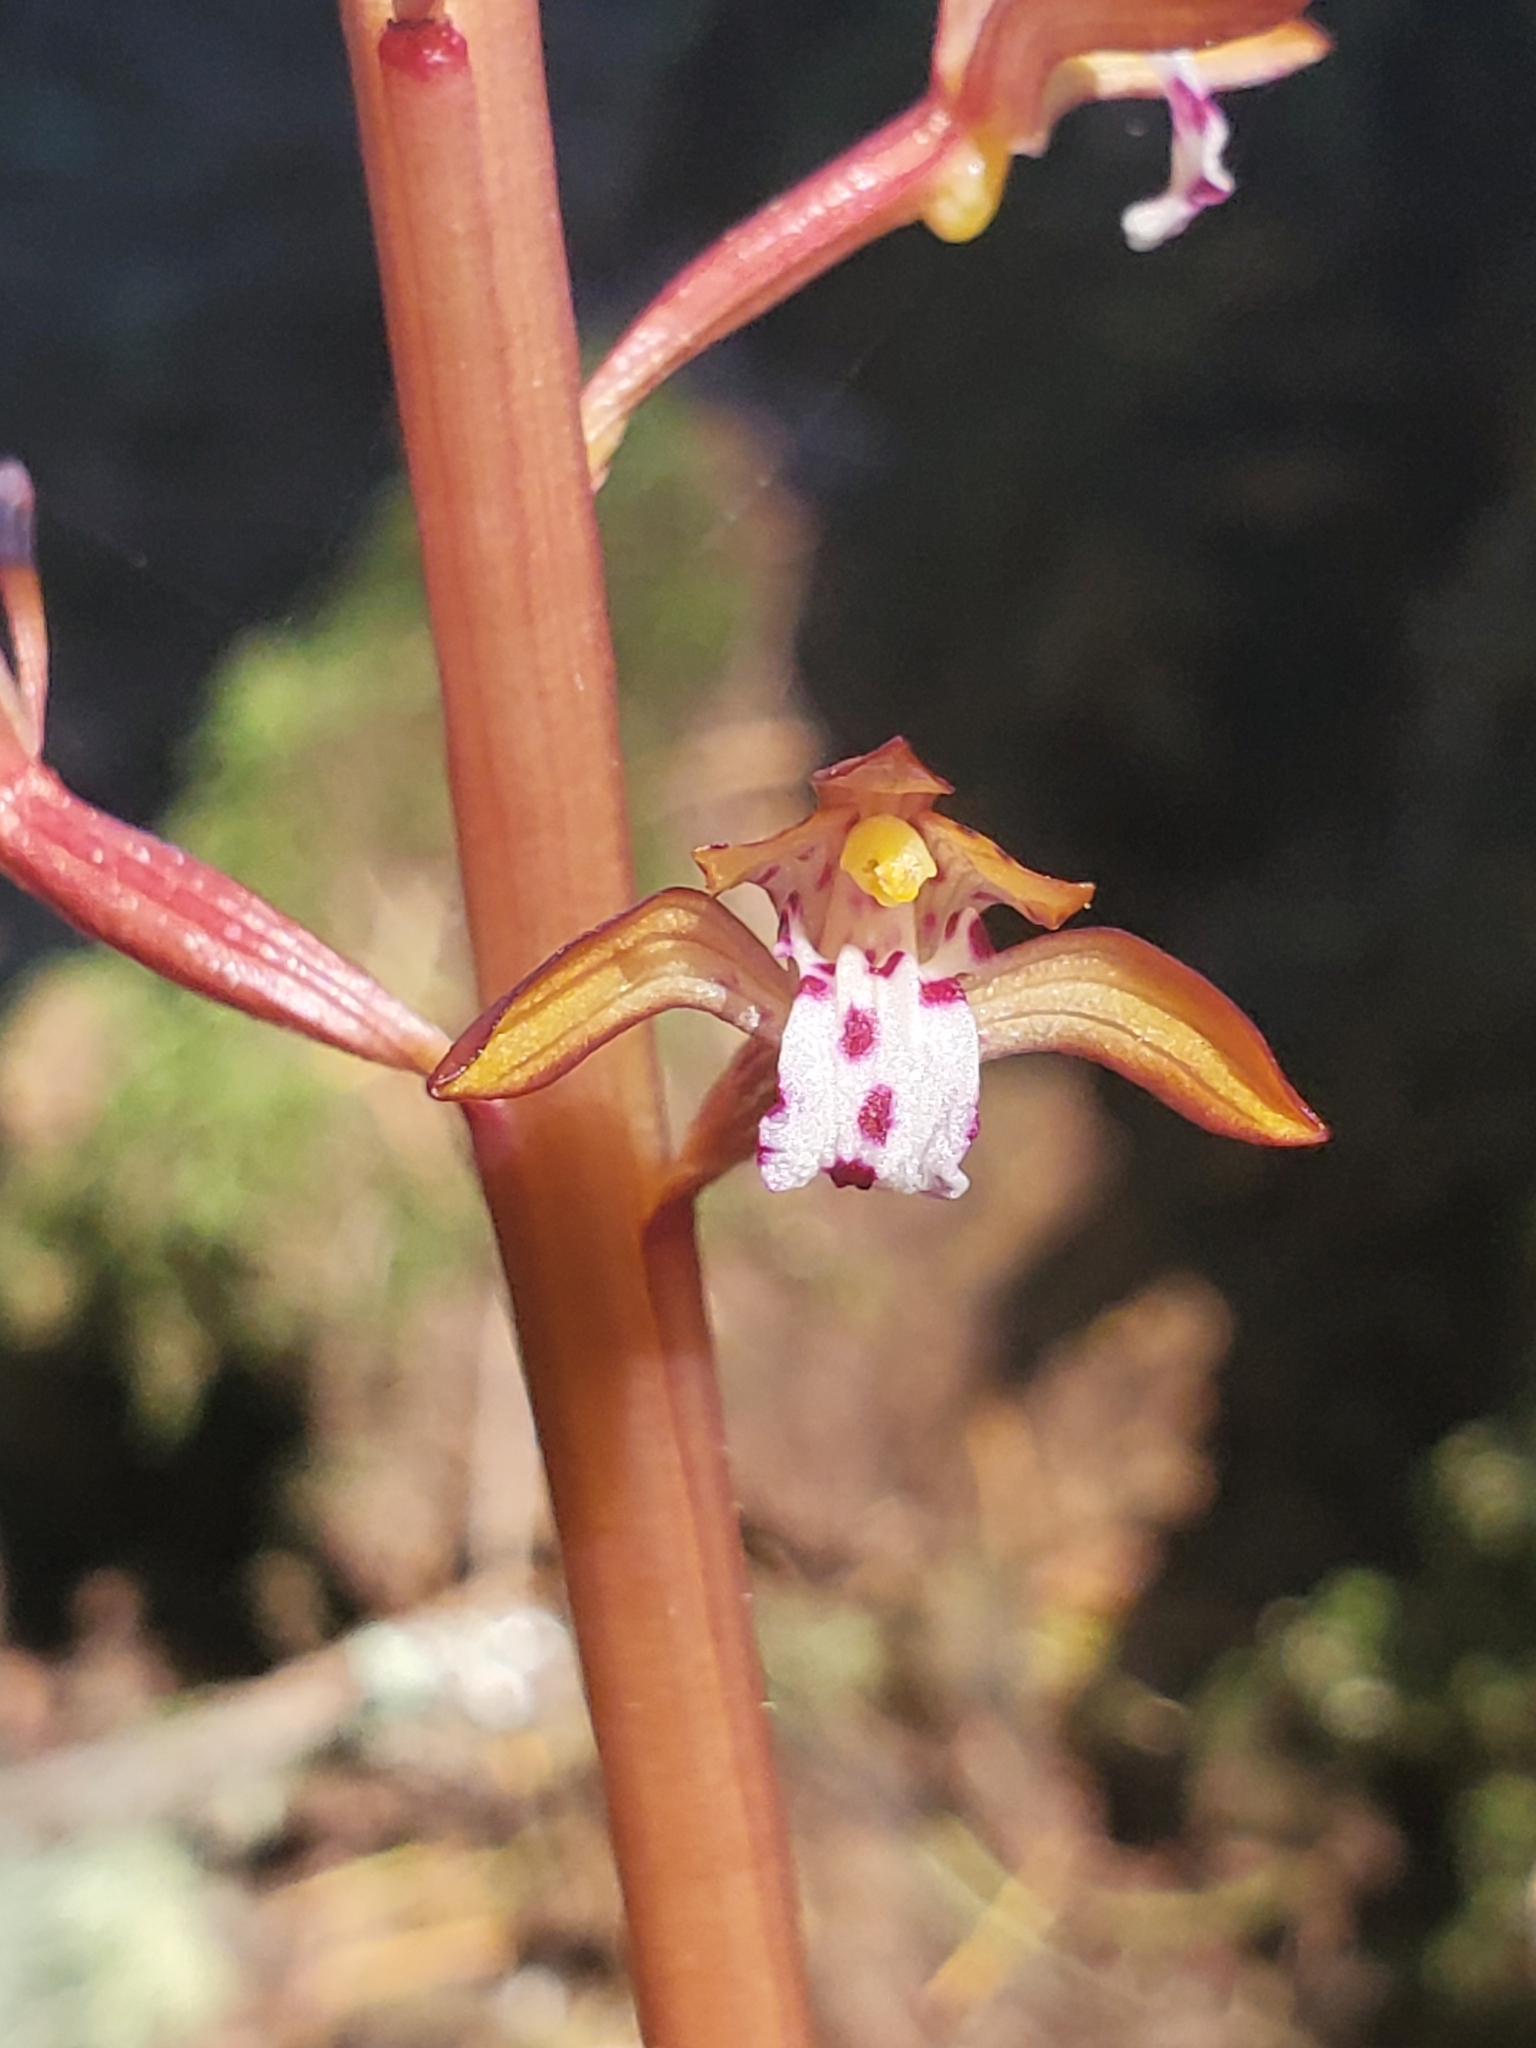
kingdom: Plantae
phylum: Tracheophyta
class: Liliopsida
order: Asparagales
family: Orchidaceae
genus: Corallorhiza
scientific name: Corallorhiza maculata
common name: Spotted coralroot
